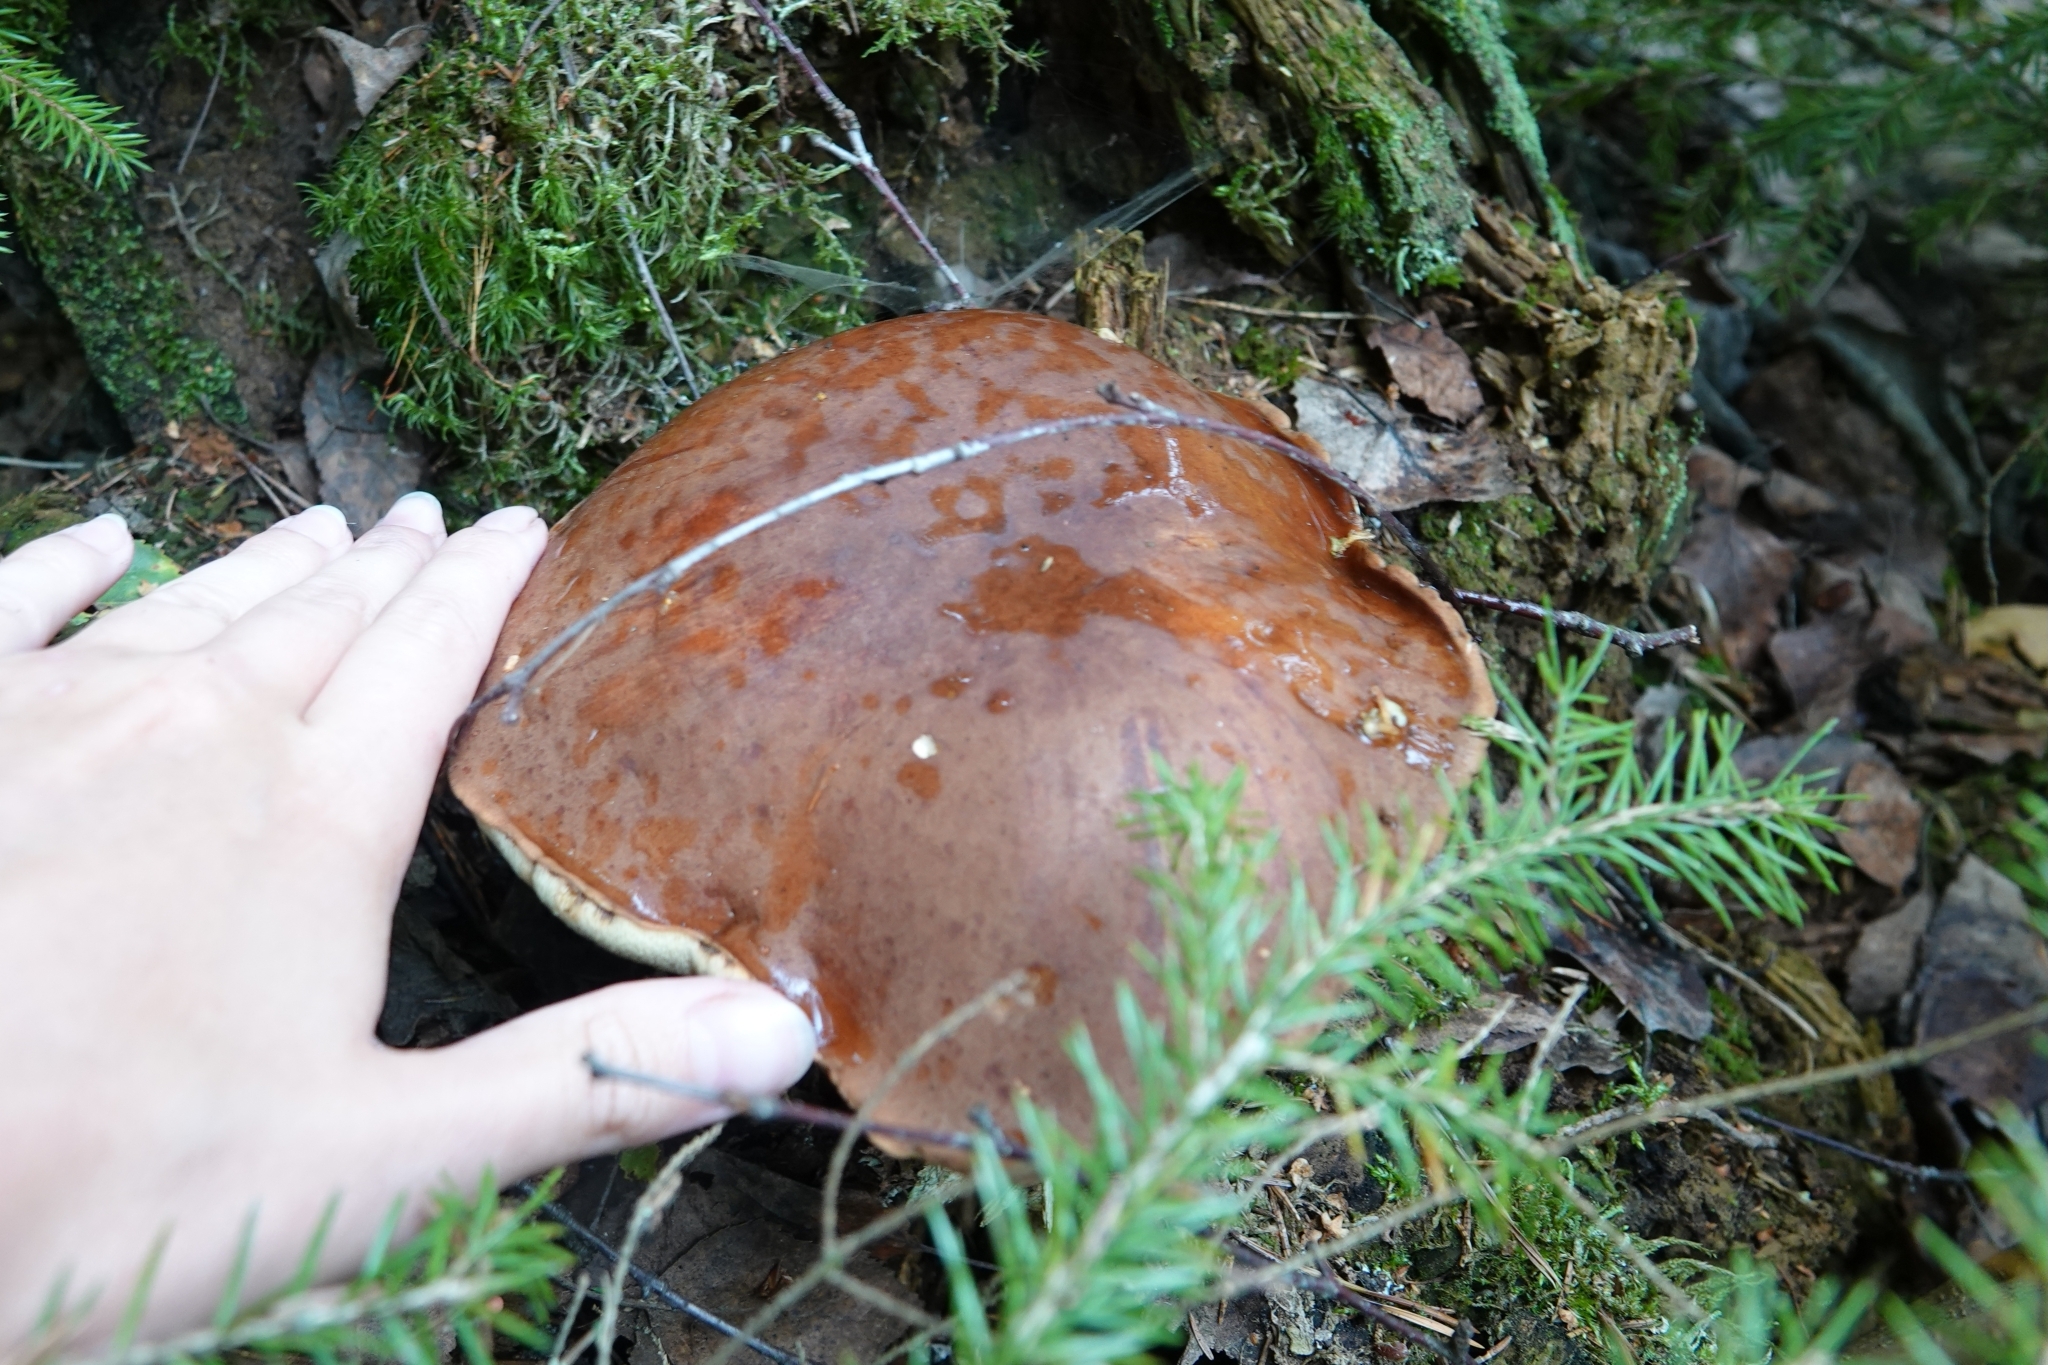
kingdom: Fungi
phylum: Basidiomycota
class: Agaricomycetes
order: Boletales
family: Boletaceae
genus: Imleria
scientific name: Imleria badia
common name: Bay bolete
